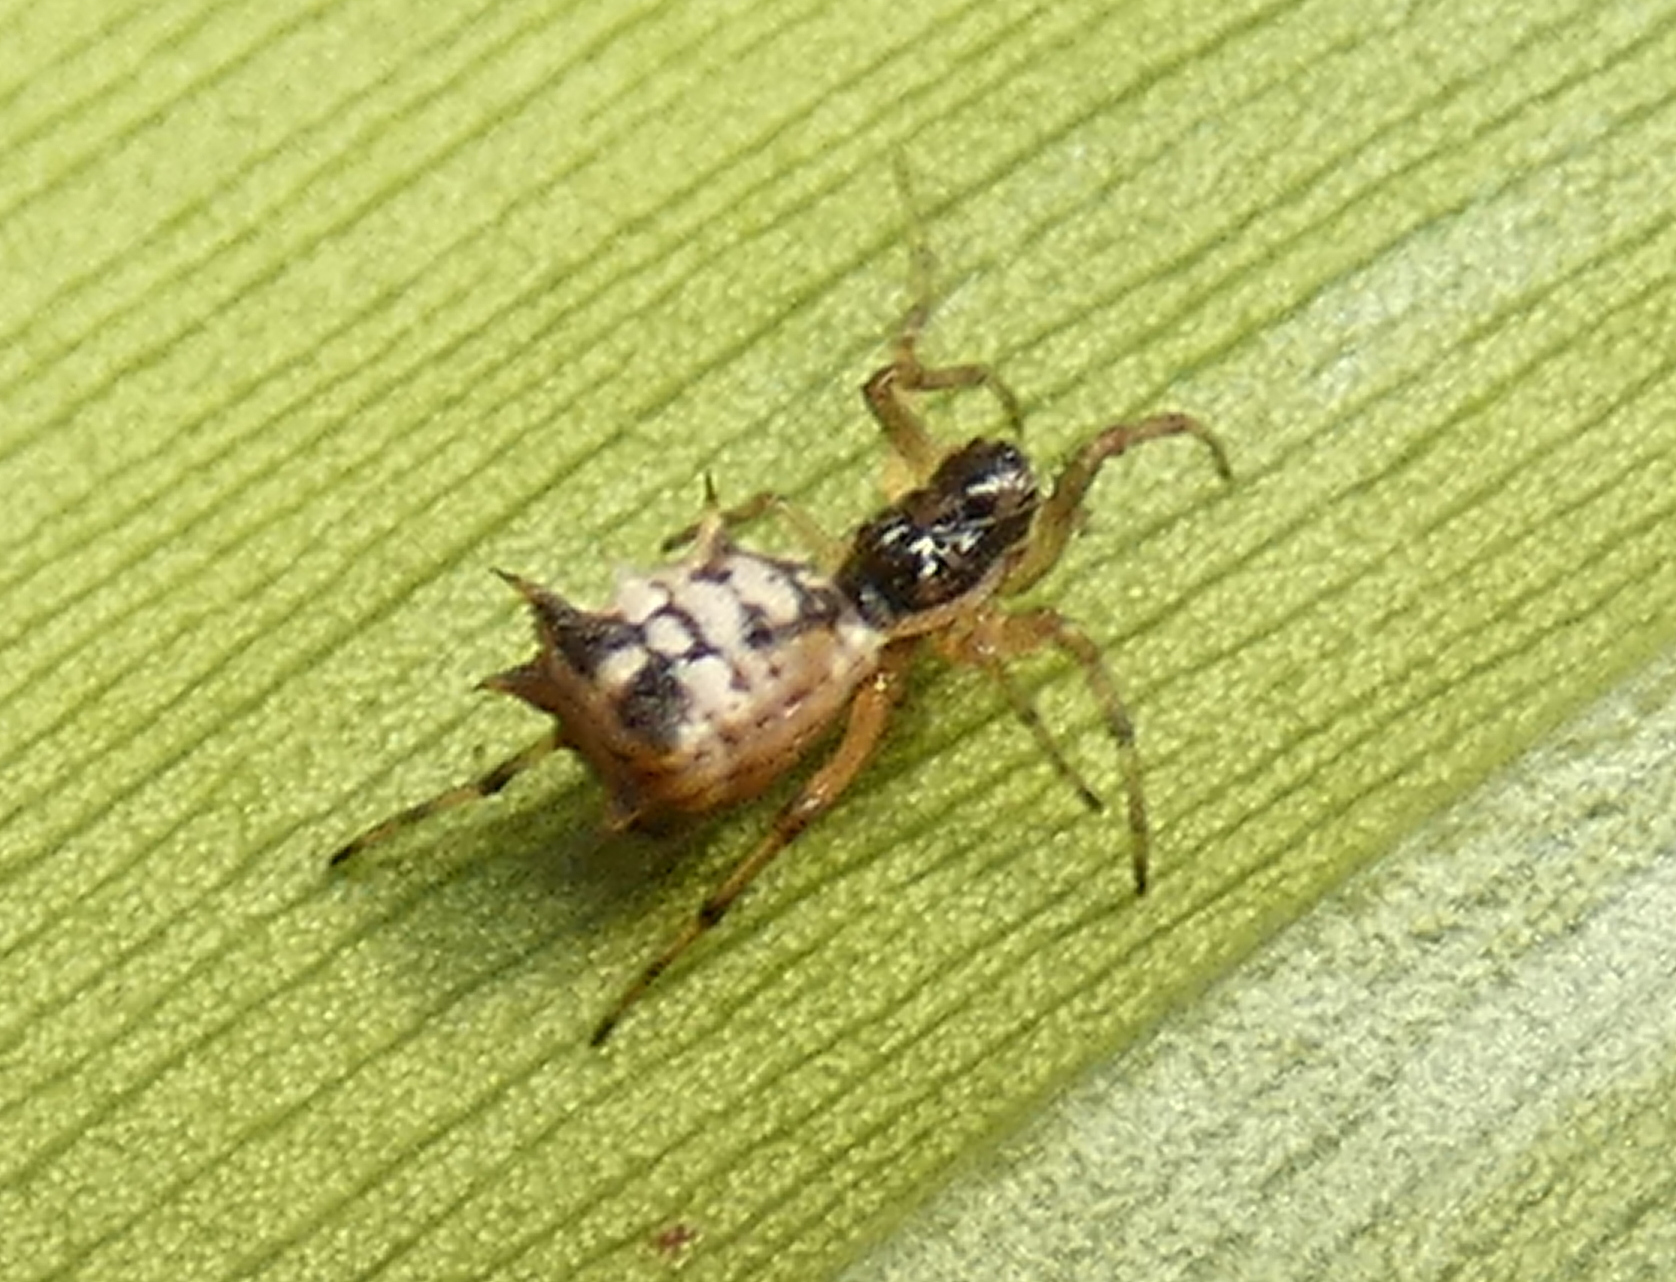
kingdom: Animalia
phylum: Arthropoda
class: Arachnida
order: Araneae
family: Araneidae
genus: Micrathena
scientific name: Micrathena picta
